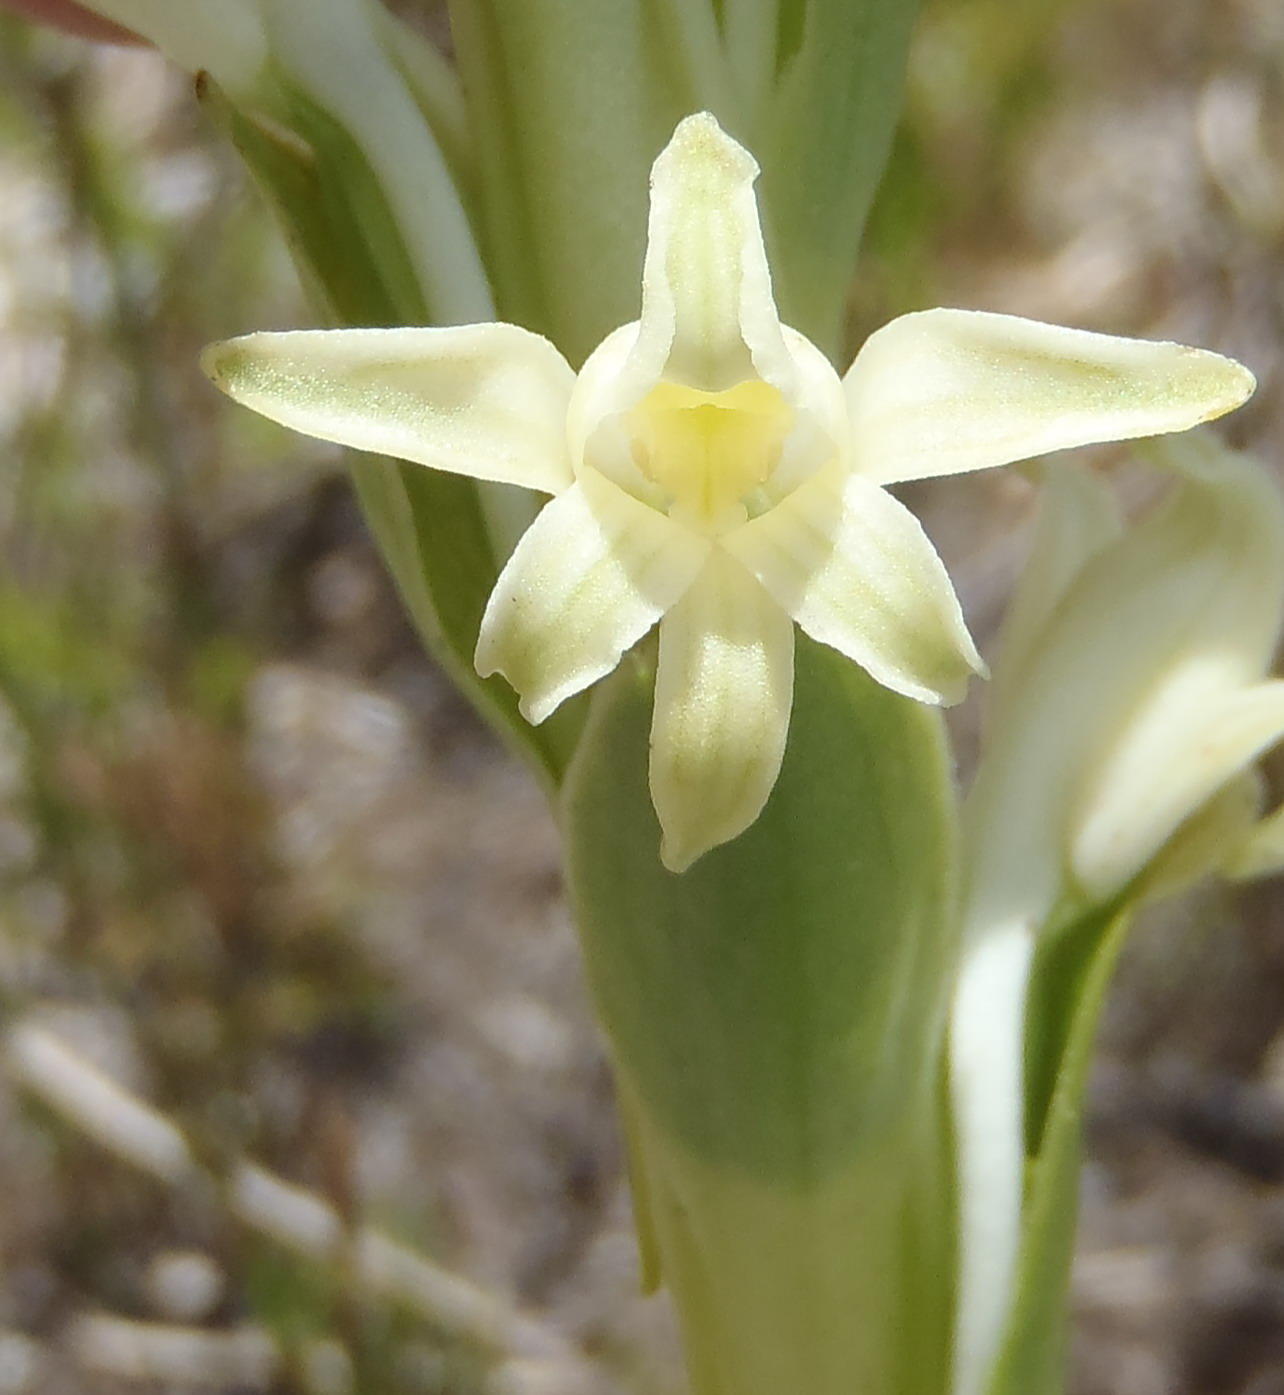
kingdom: Plantae
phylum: Tracheophyta
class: Liliopsida
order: Asparagales
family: Orchidaceae
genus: Satyrium
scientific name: Satyrium stenopetalum
